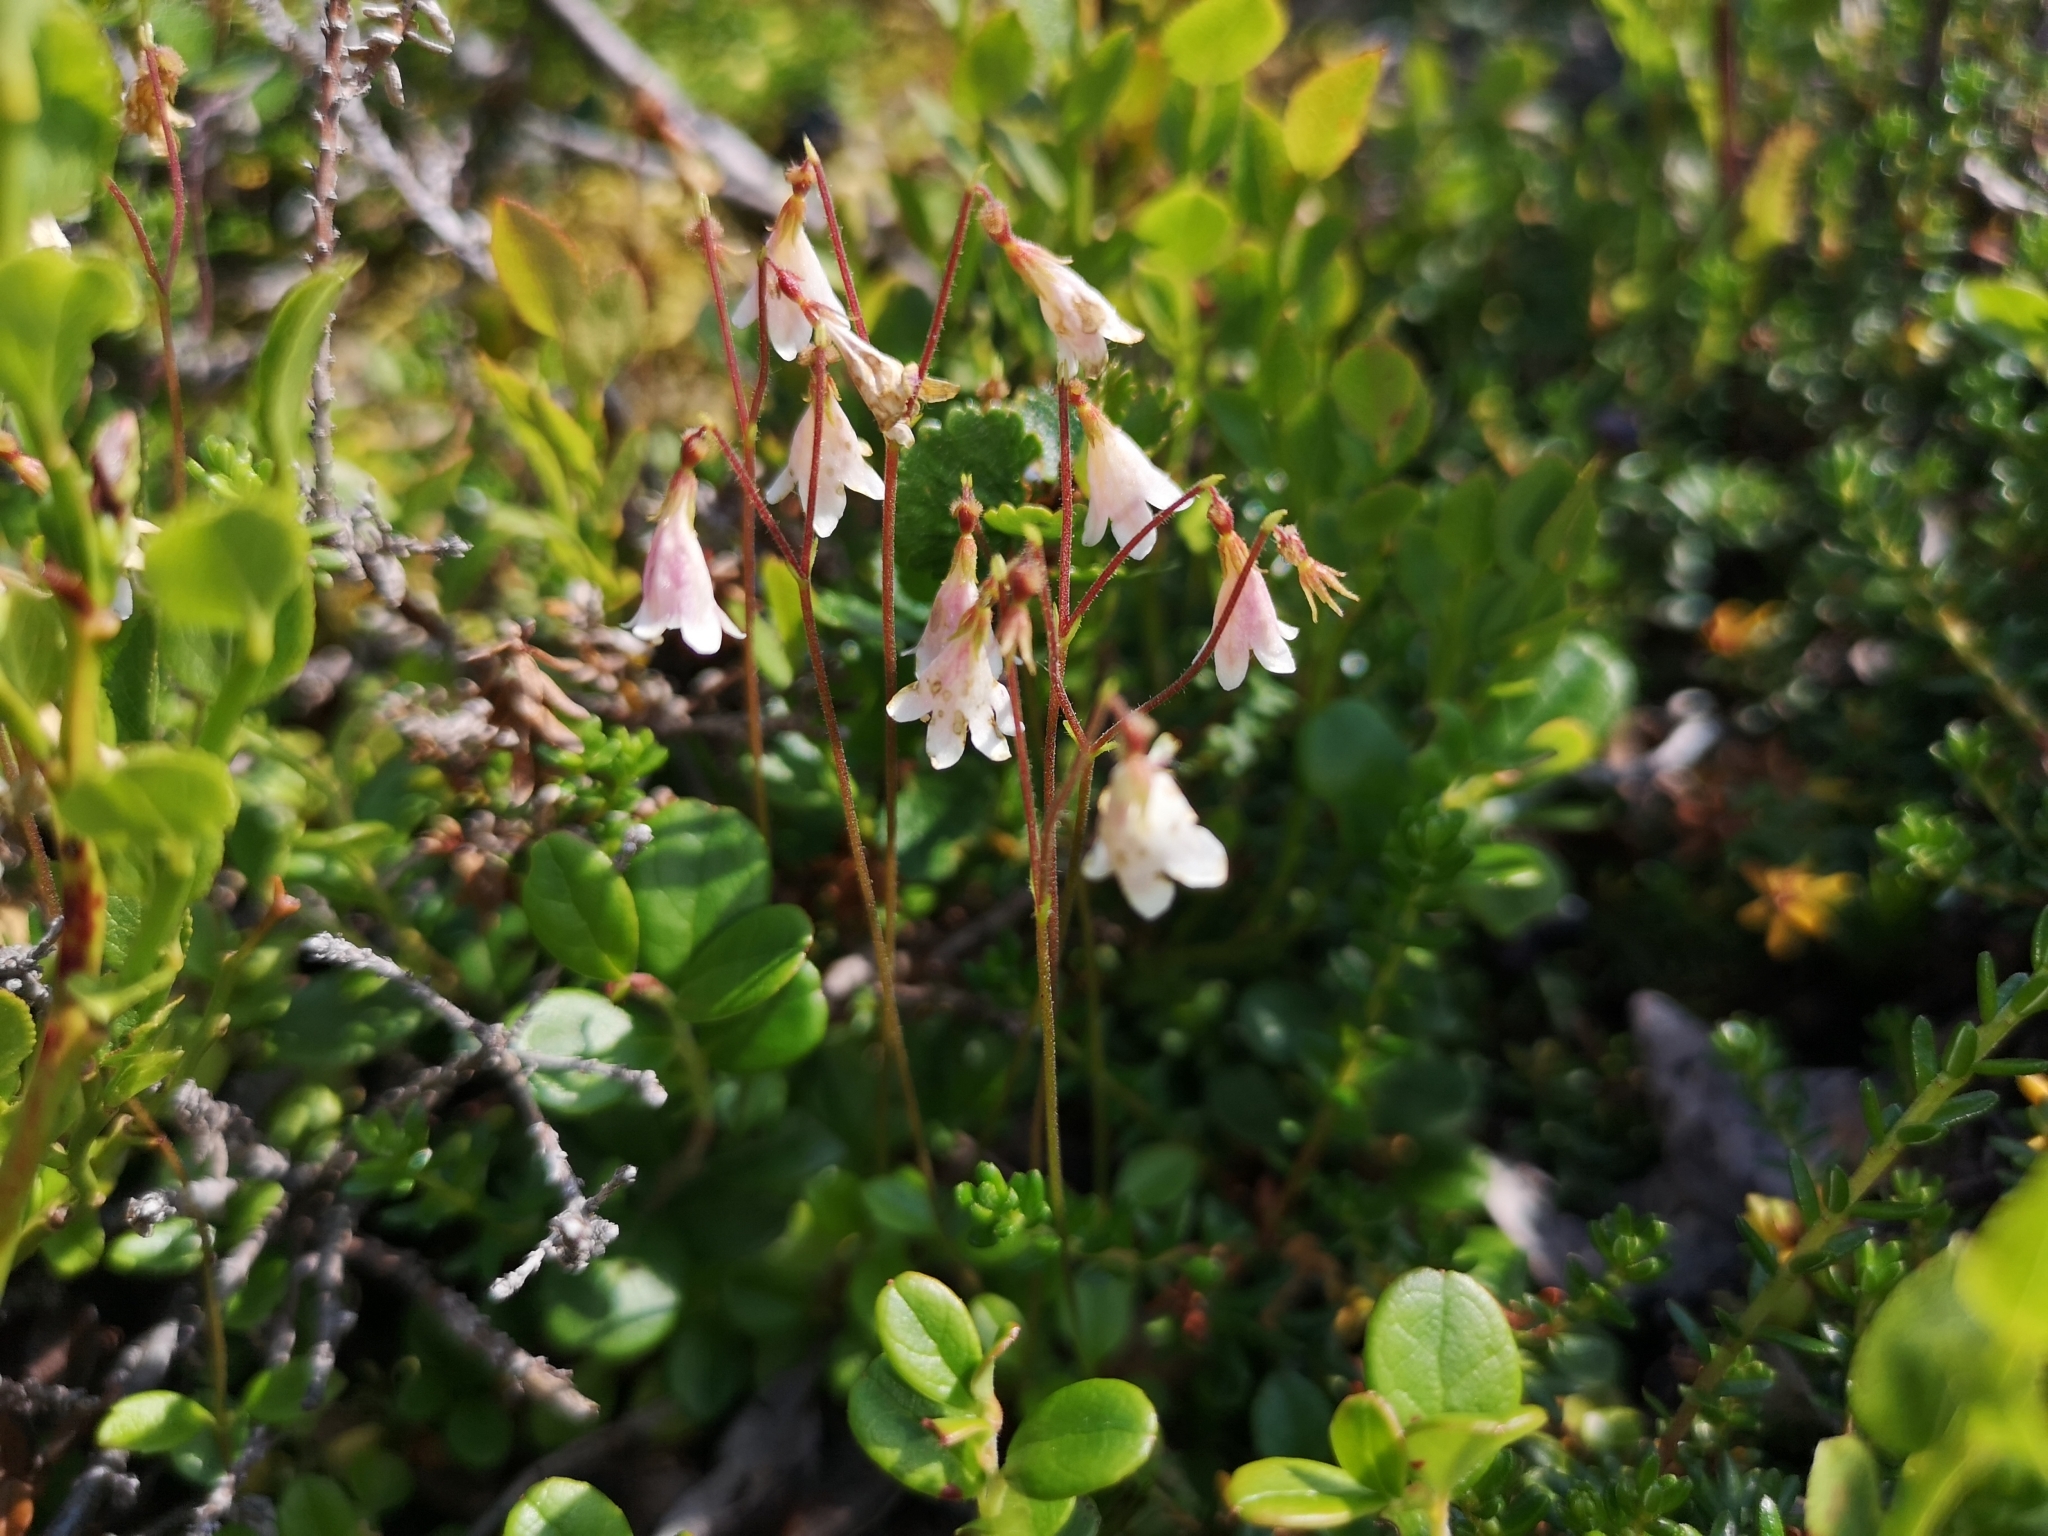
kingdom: Plantae
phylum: Tracheophyta
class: Magnoliopsida
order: Dipsacales
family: Caprifoliaceae
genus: Linnaea
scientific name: Linnaea borealis
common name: Twinflower
